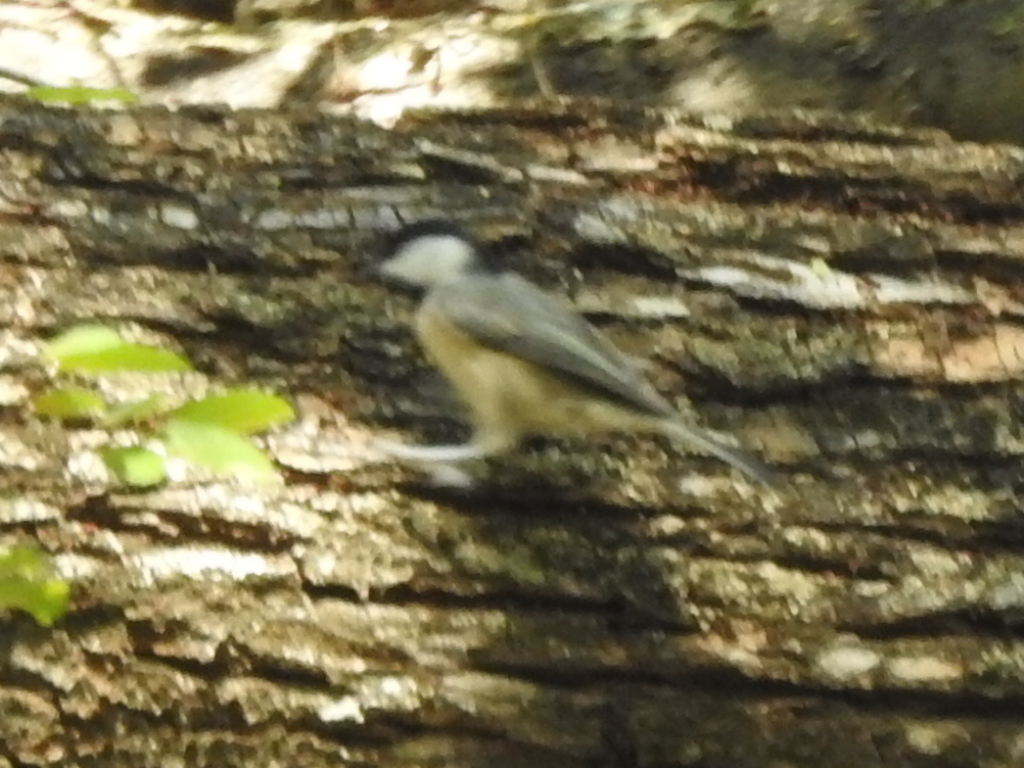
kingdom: Animalia
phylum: Chordata
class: Aves
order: Passeriformes
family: Paridae
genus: Poecile
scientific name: Poecile carolinensis
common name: Carolina chickadee
